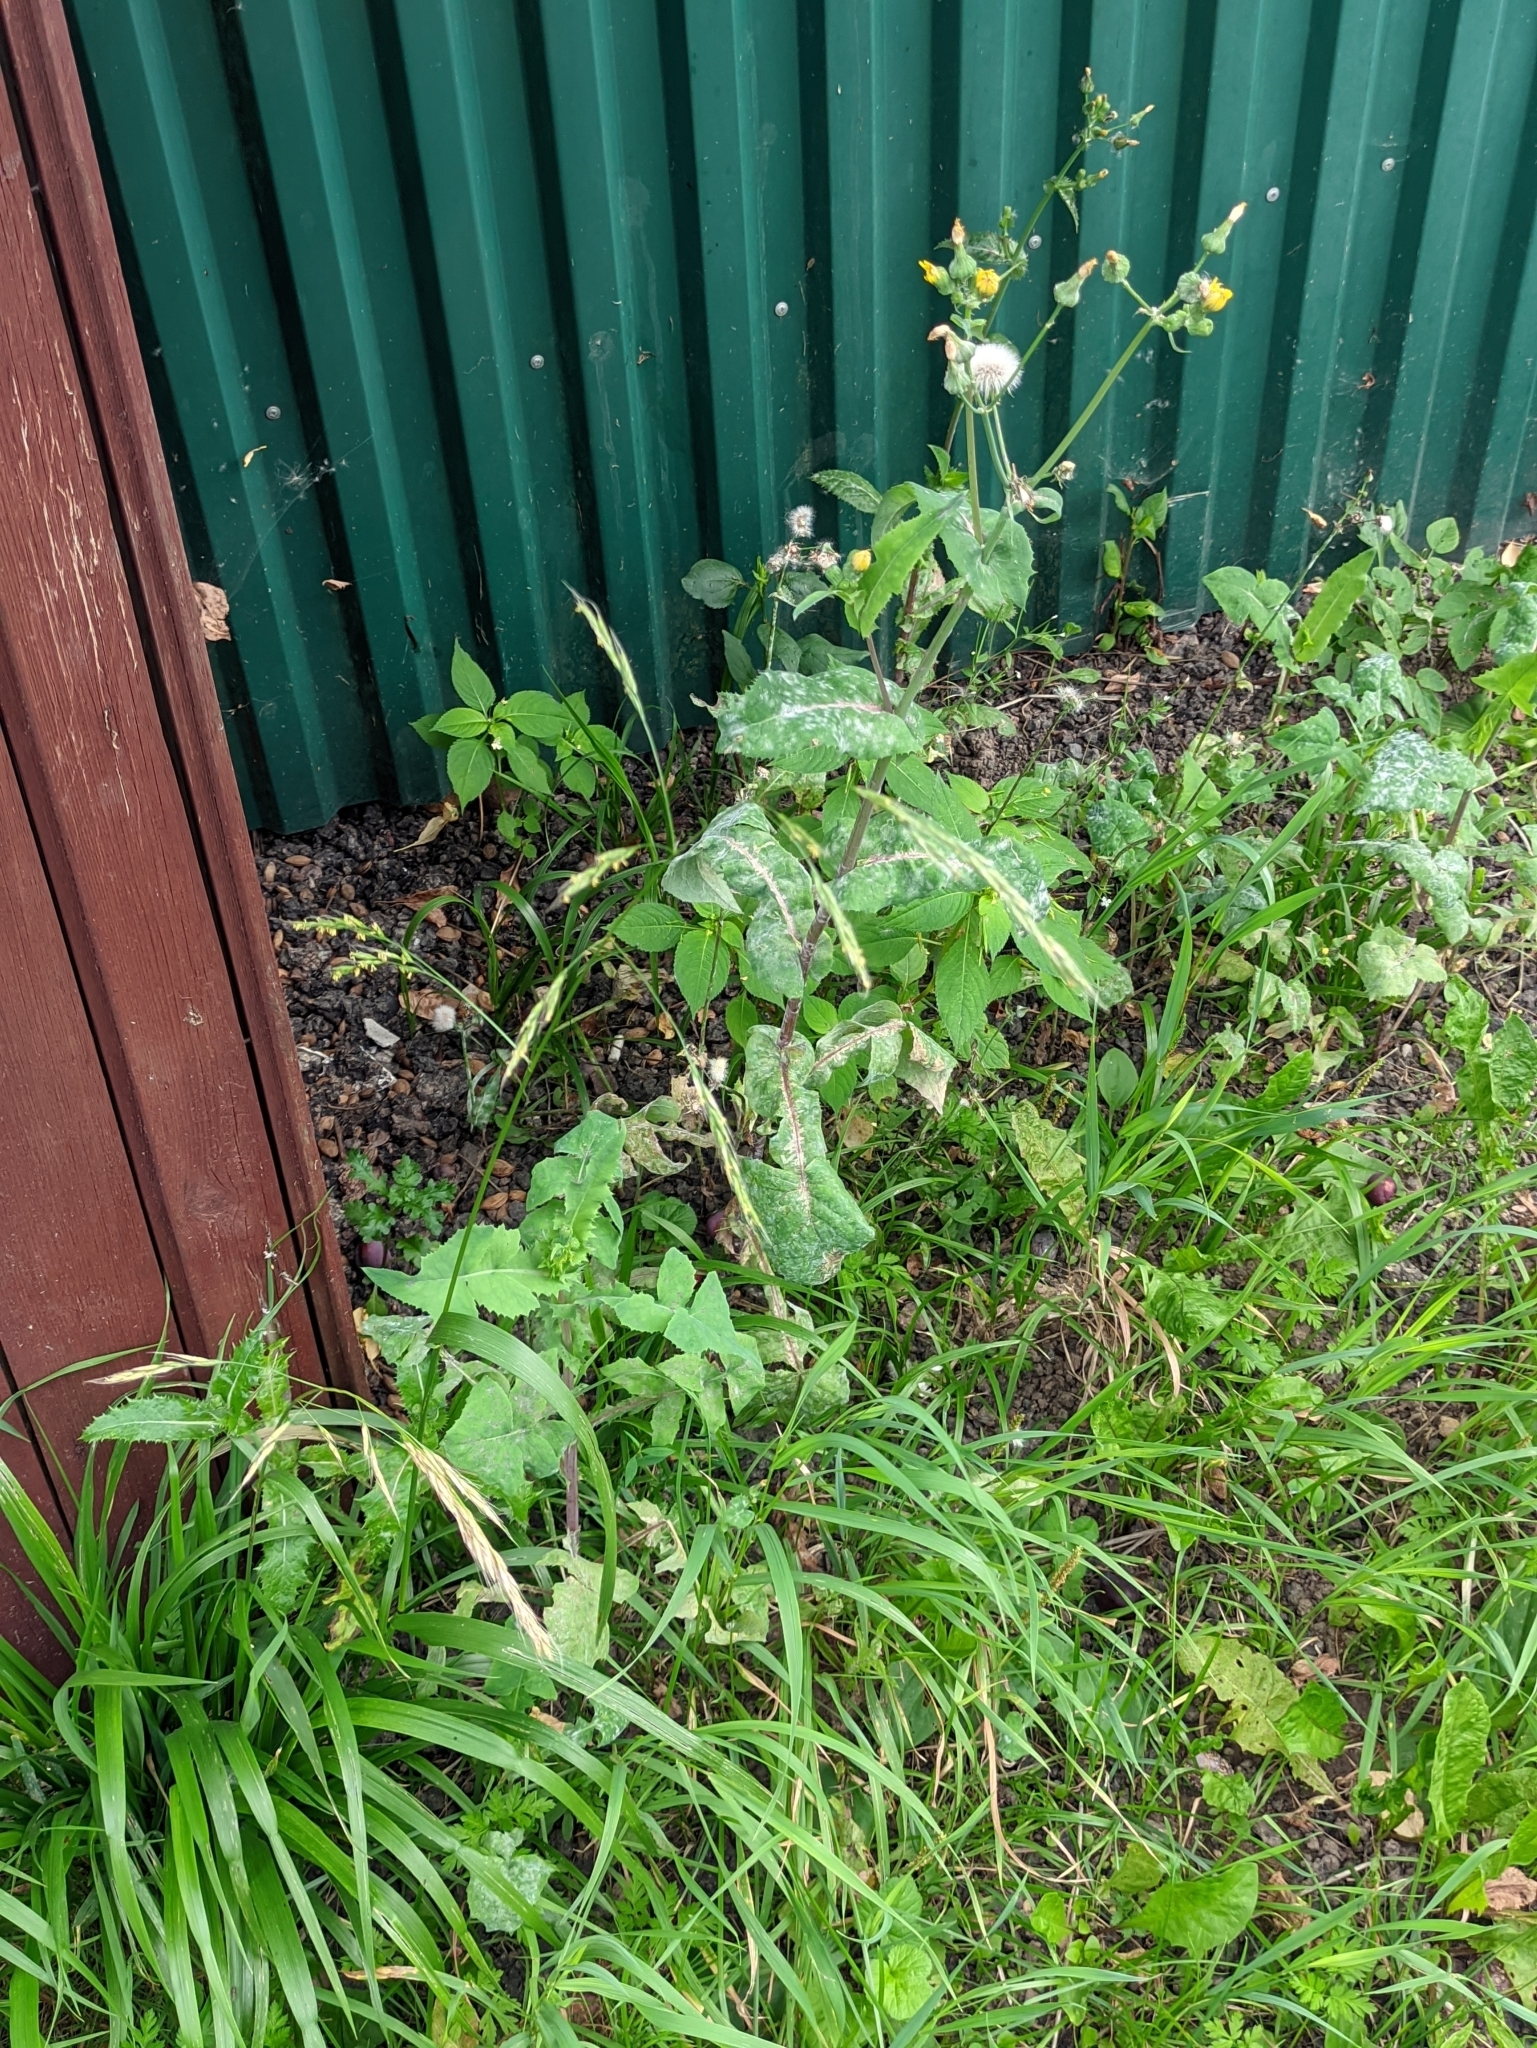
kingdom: Plantae
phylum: Tracheophyta
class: Liliopsida
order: Poales
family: Poaceae
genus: Lolium
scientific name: Lolium giganteum
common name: Giant fescue
